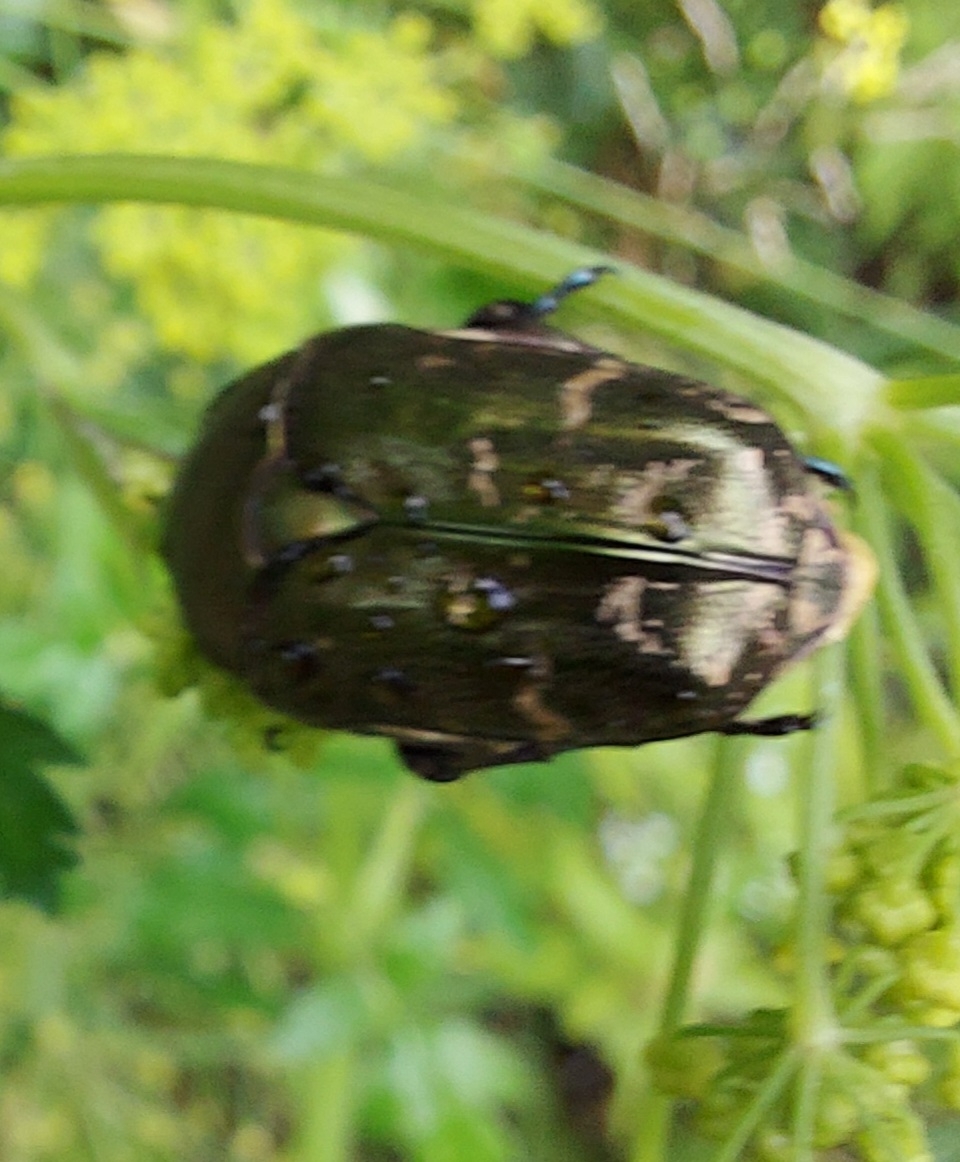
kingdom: Animalia
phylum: Arthropoda
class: Insecta
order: Coleoptera
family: Scarabaeidae
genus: Protaetia
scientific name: Protaetia cuprea
